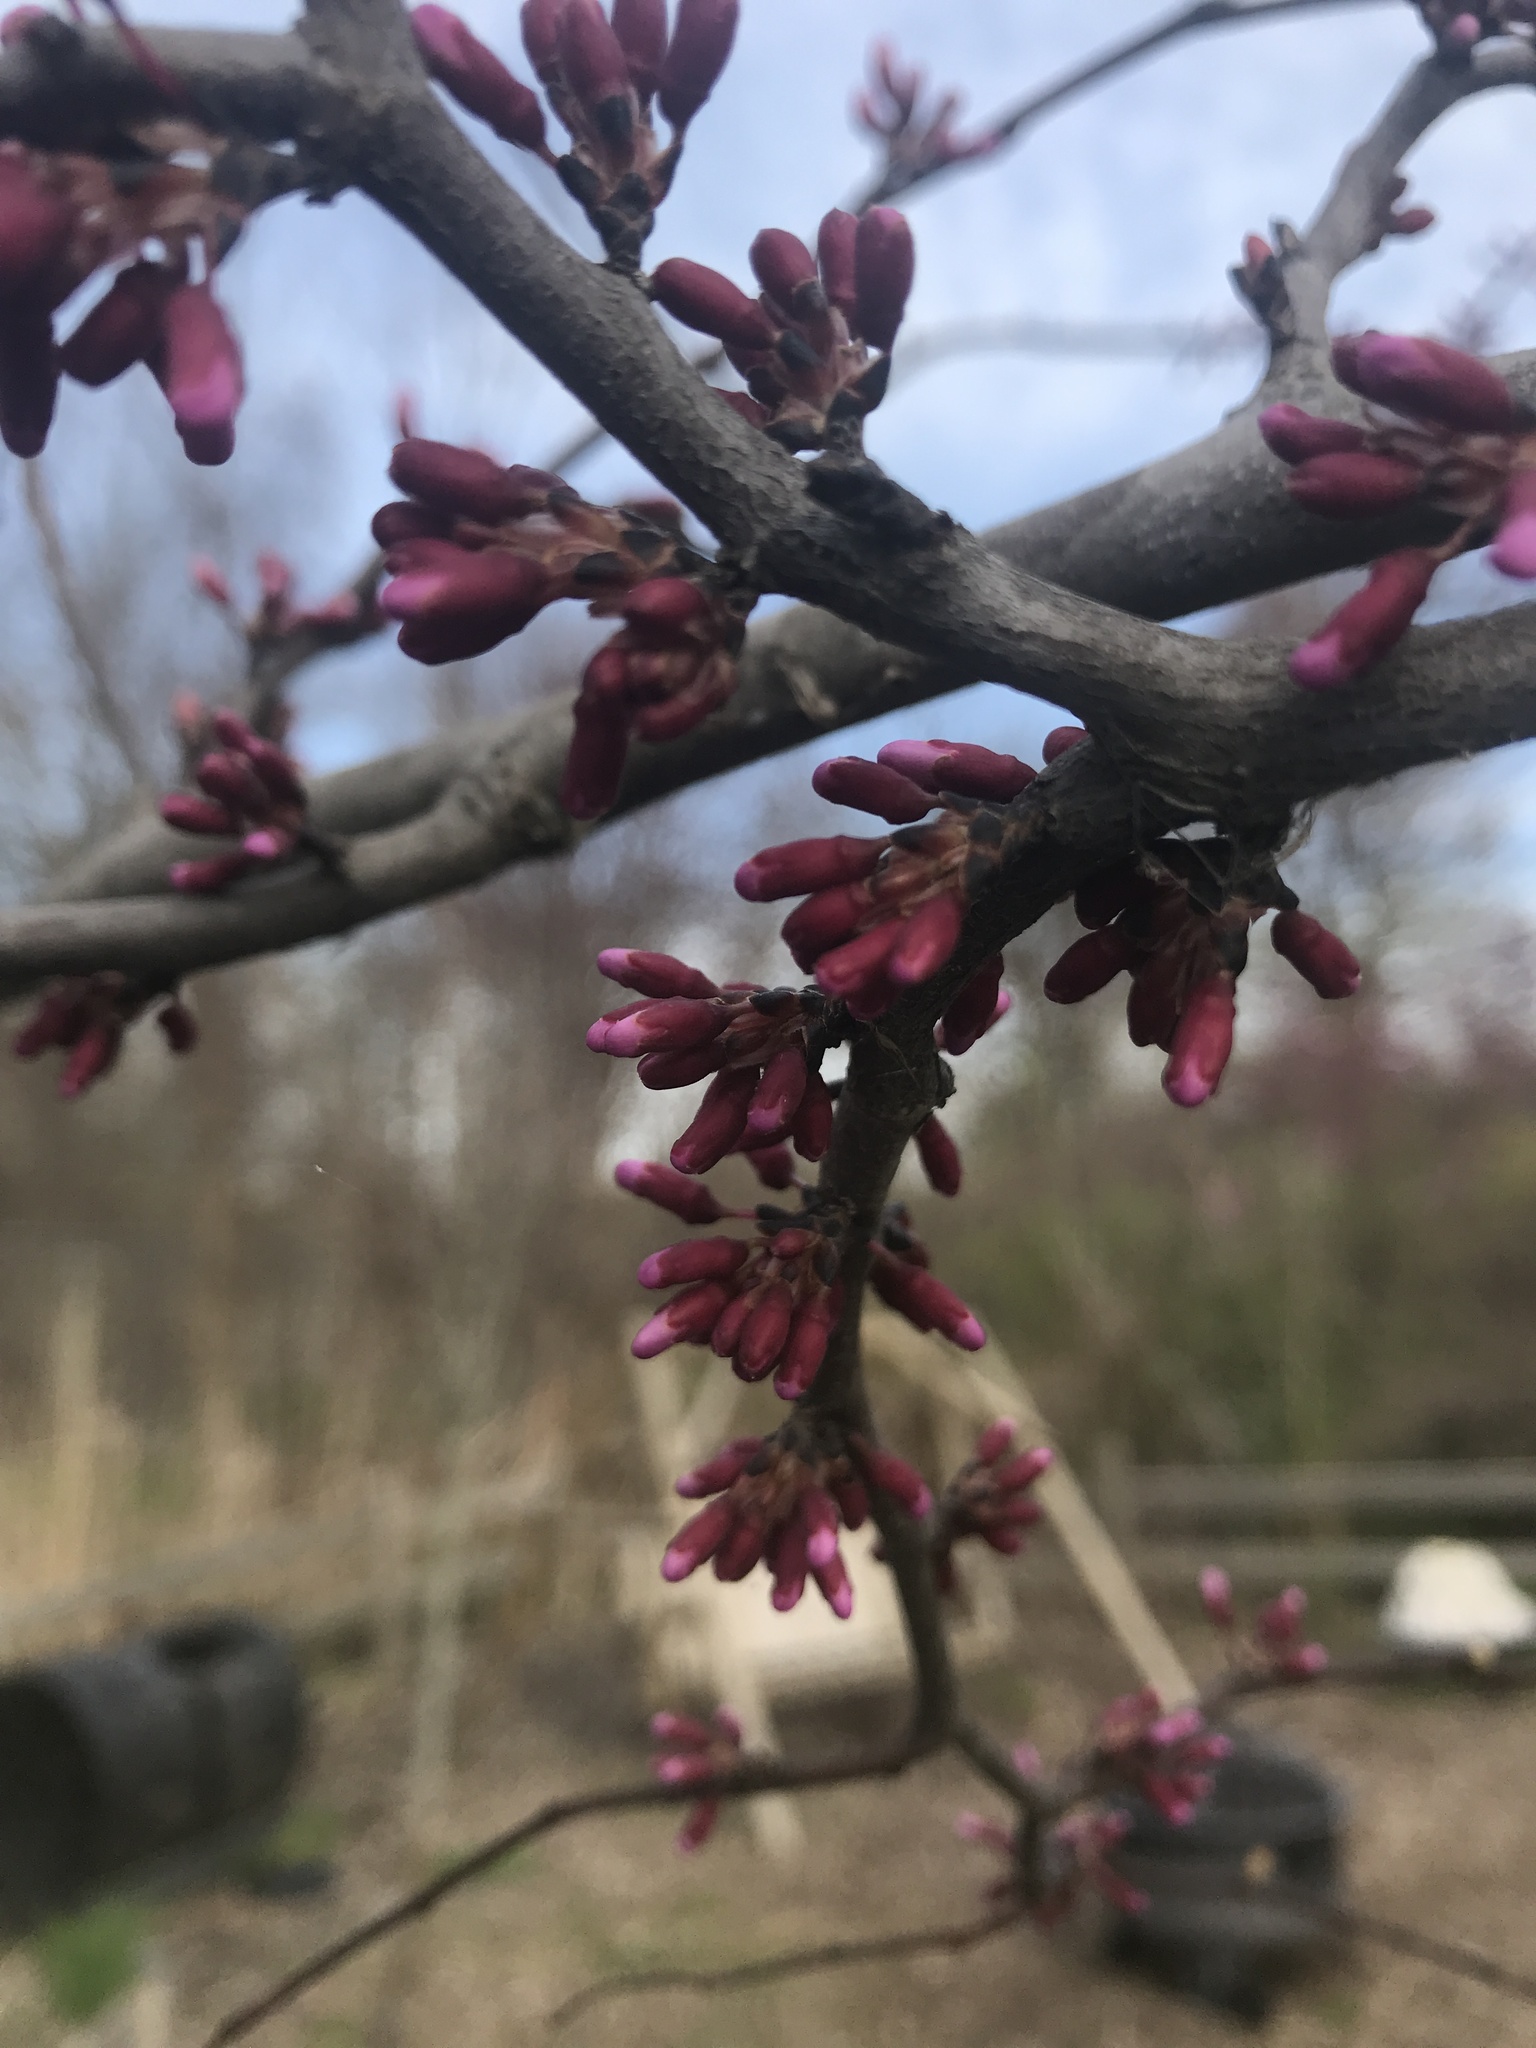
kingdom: Plantae
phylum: Tracheophyta
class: Magnoliopsida
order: Fabales
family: Fabaceae
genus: Cercis
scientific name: Cercis canadensis
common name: Eastern redbud
